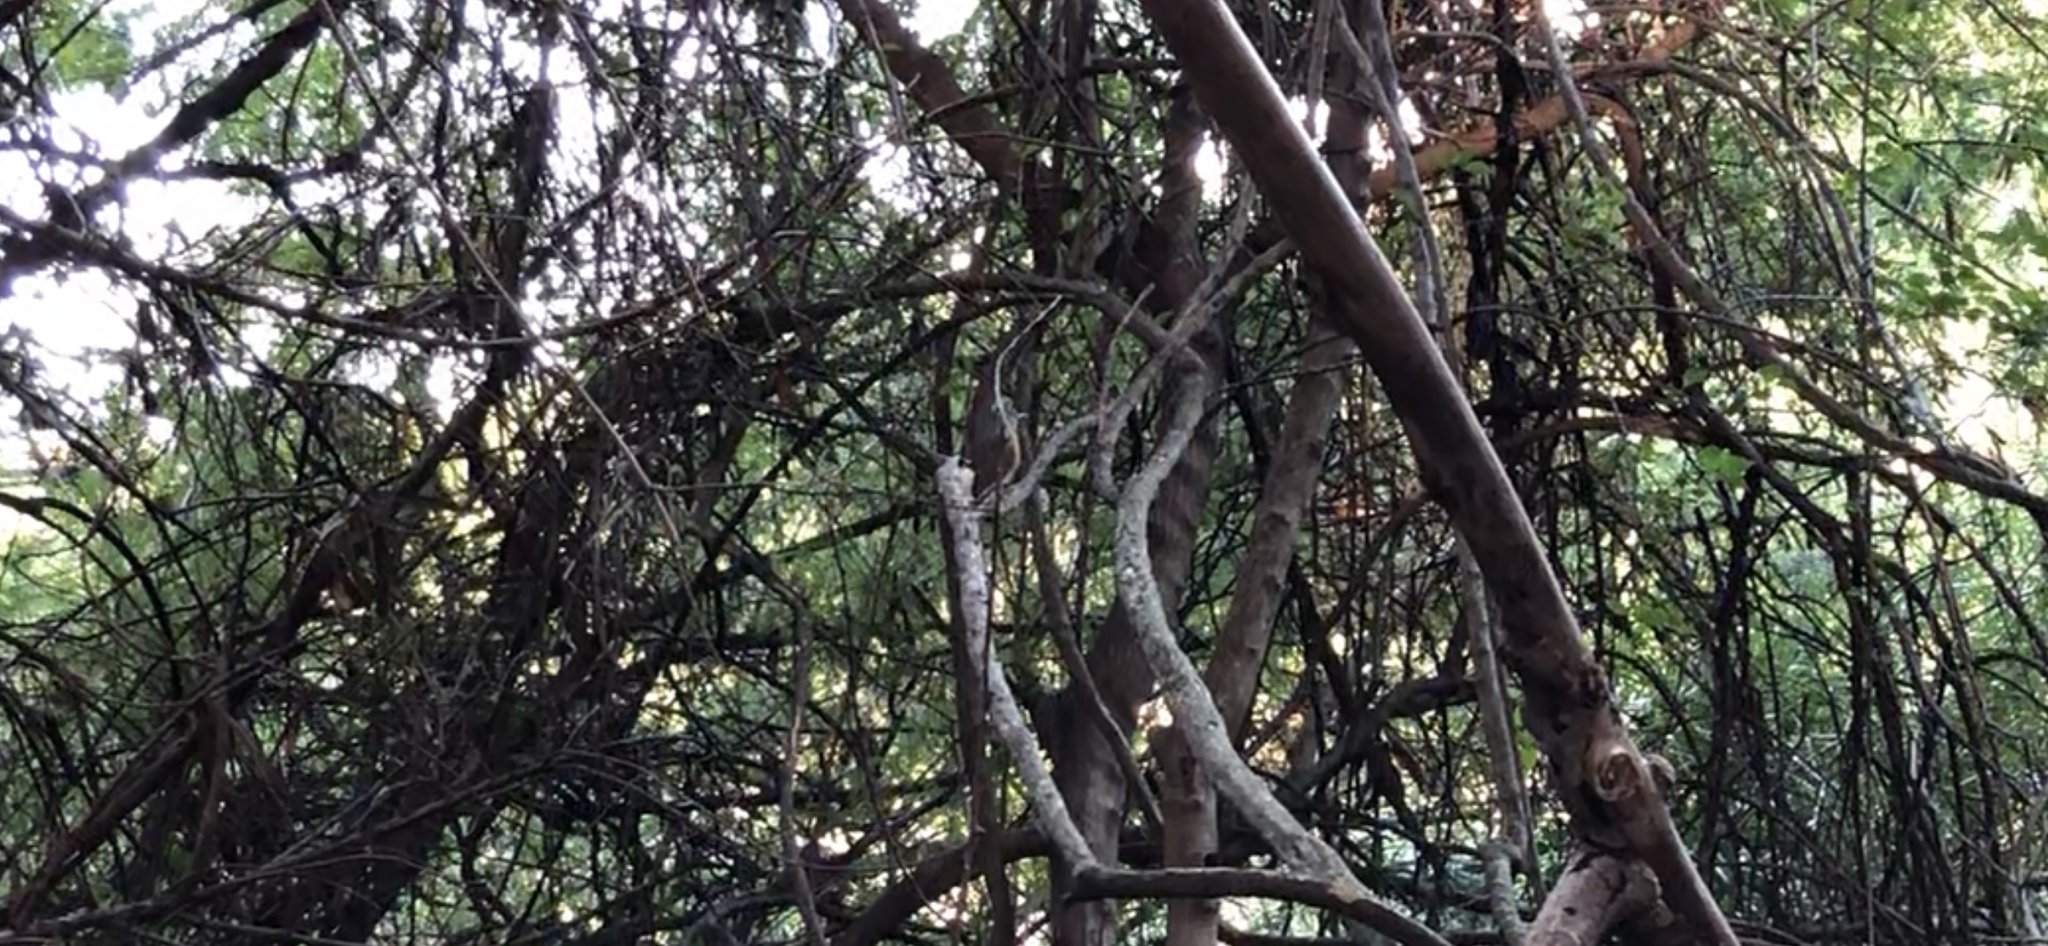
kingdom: Animalia
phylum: Chordata
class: Aves
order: Passeriformes
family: Muscicapidae
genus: Copsychus
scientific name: Copsychus malabaricus
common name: White-rumped shama
